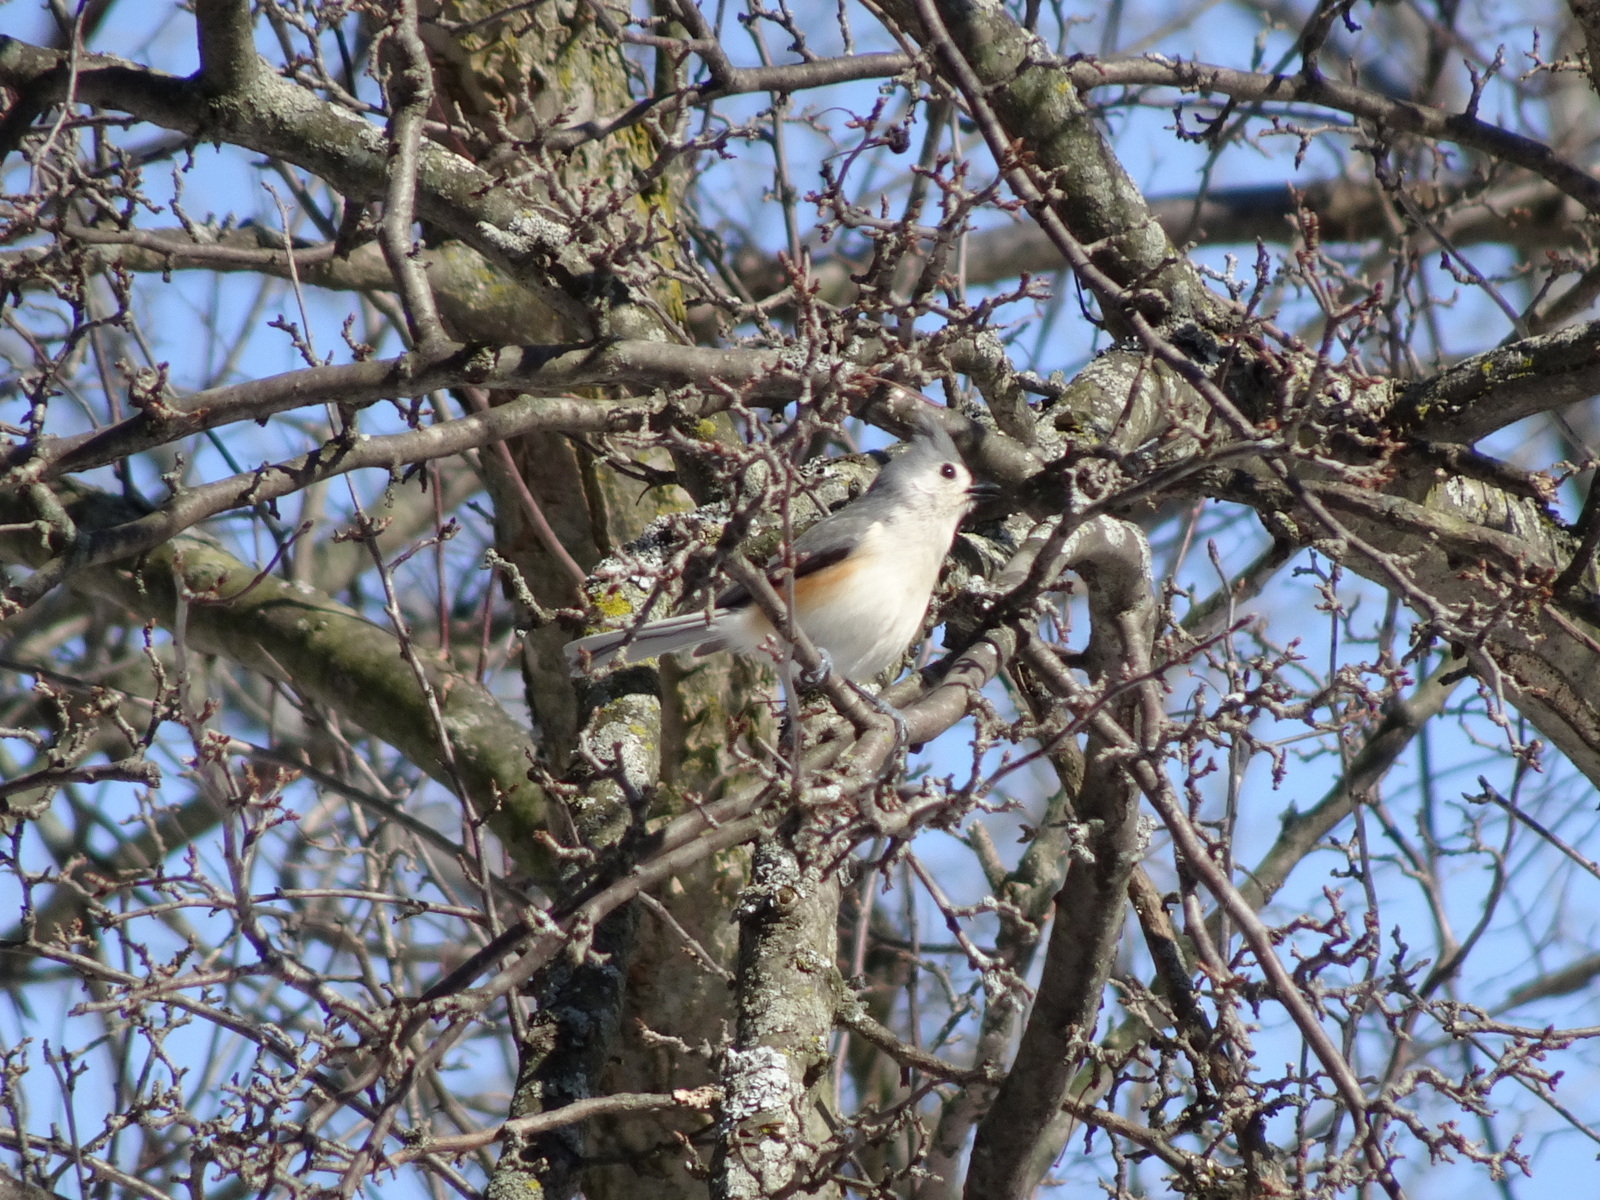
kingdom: Animalia
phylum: Chordata
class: Aves
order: Passeriformes
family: Paridae
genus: Baeolophus
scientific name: Baeolophus bicolor
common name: Tufted titmouse
